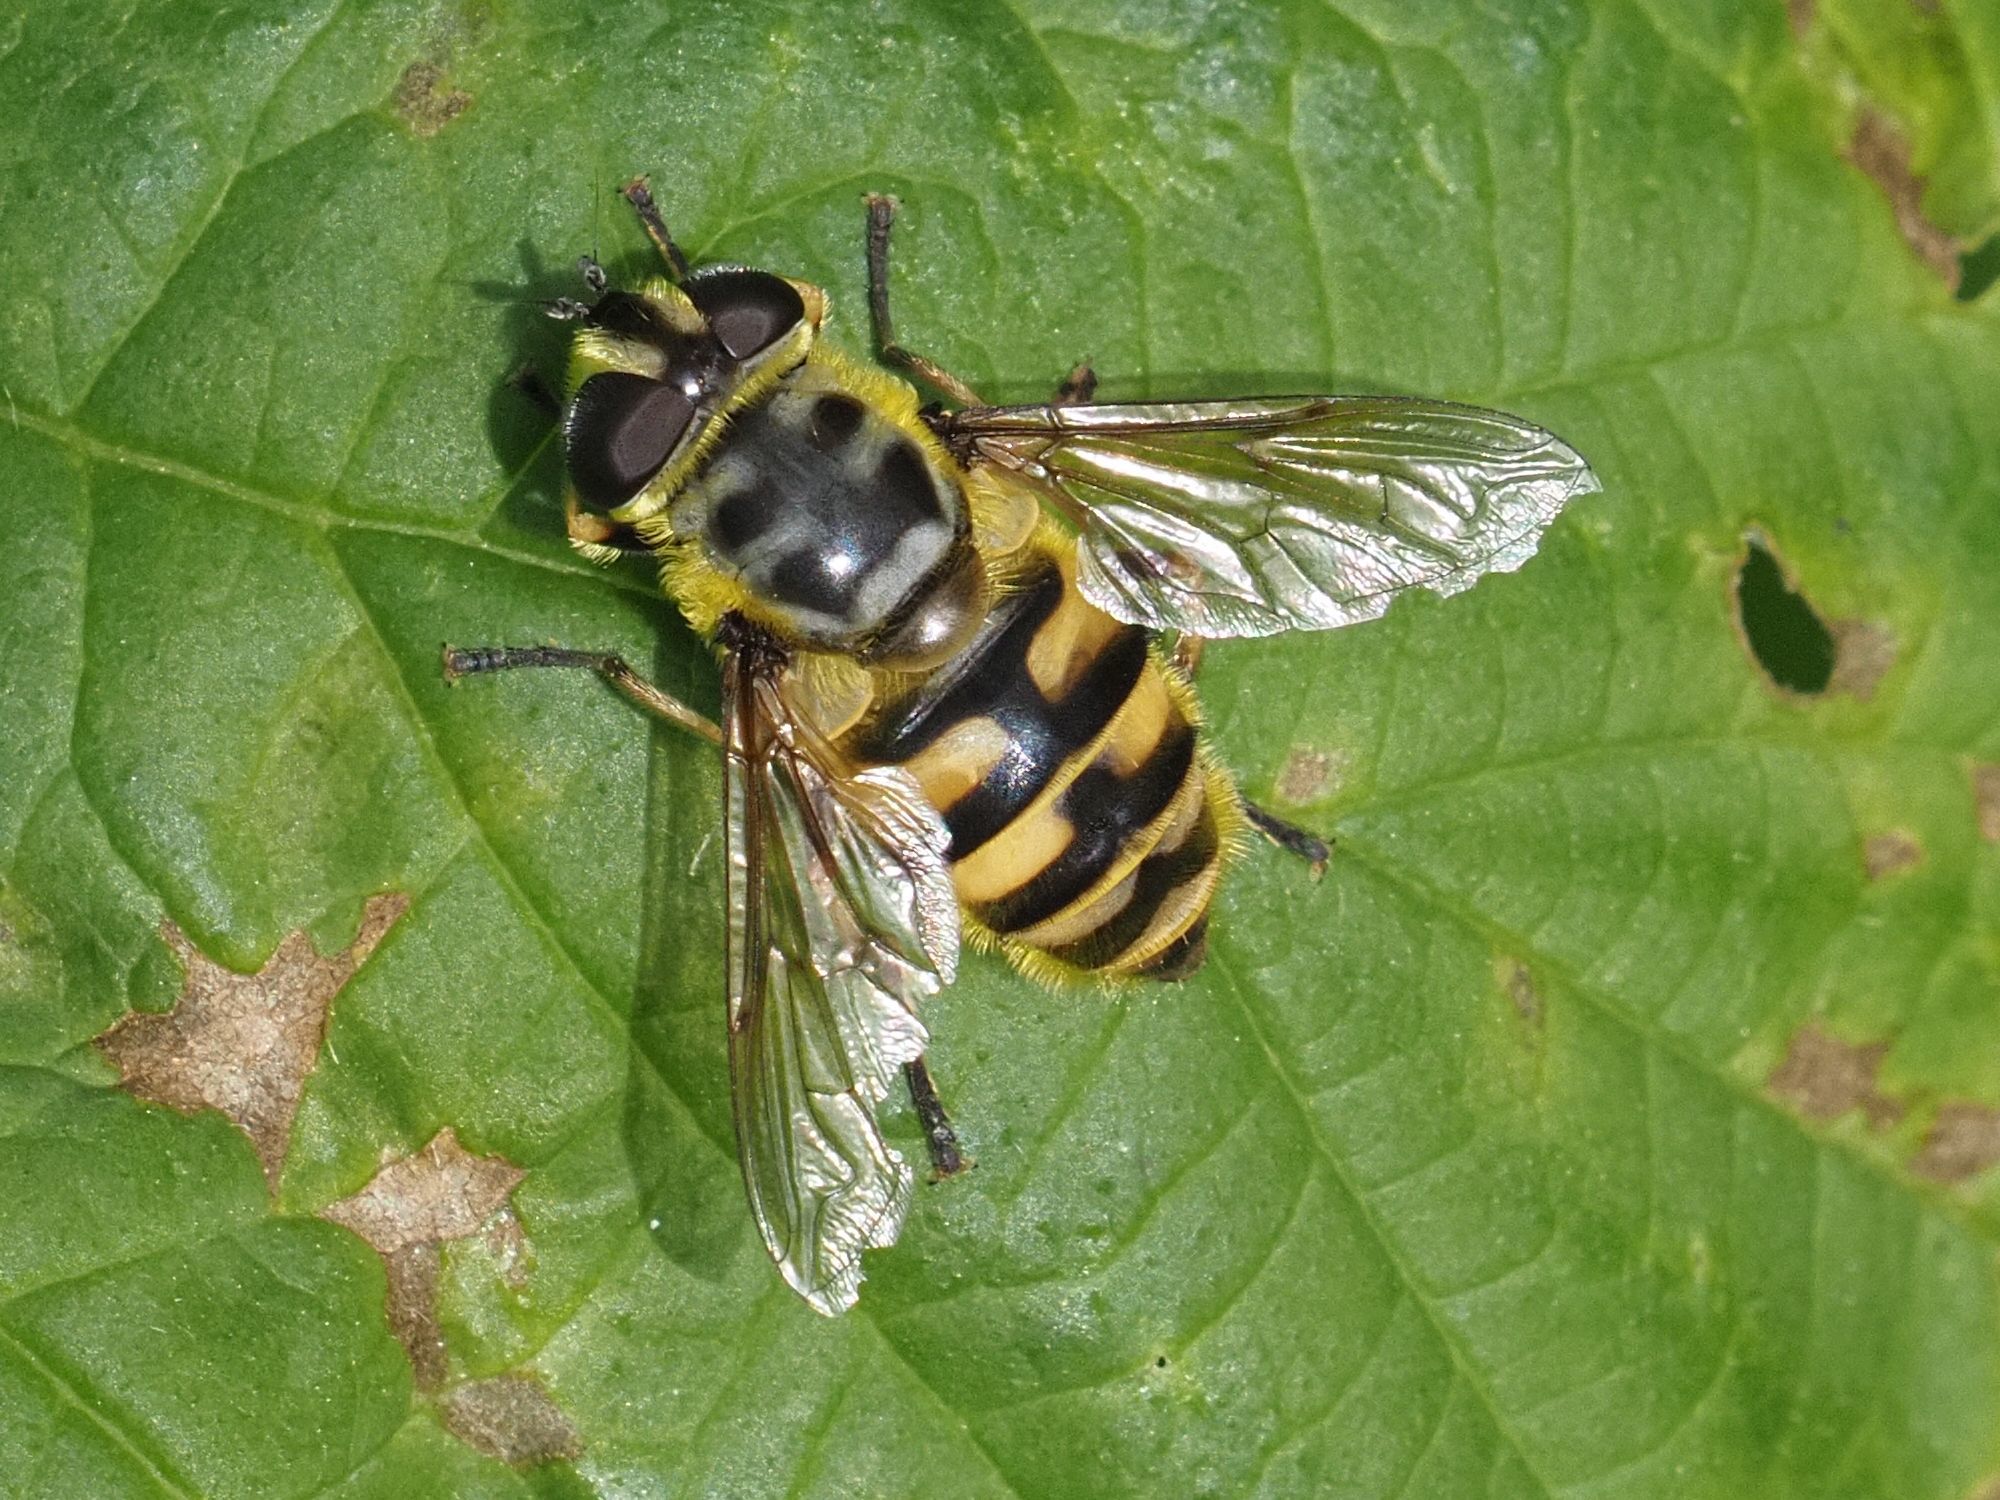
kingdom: Animalia
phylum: Arthropoda
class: Insecta
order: Diptera
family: Syrphidae
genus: Myathropa
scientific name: Myathropa florea
